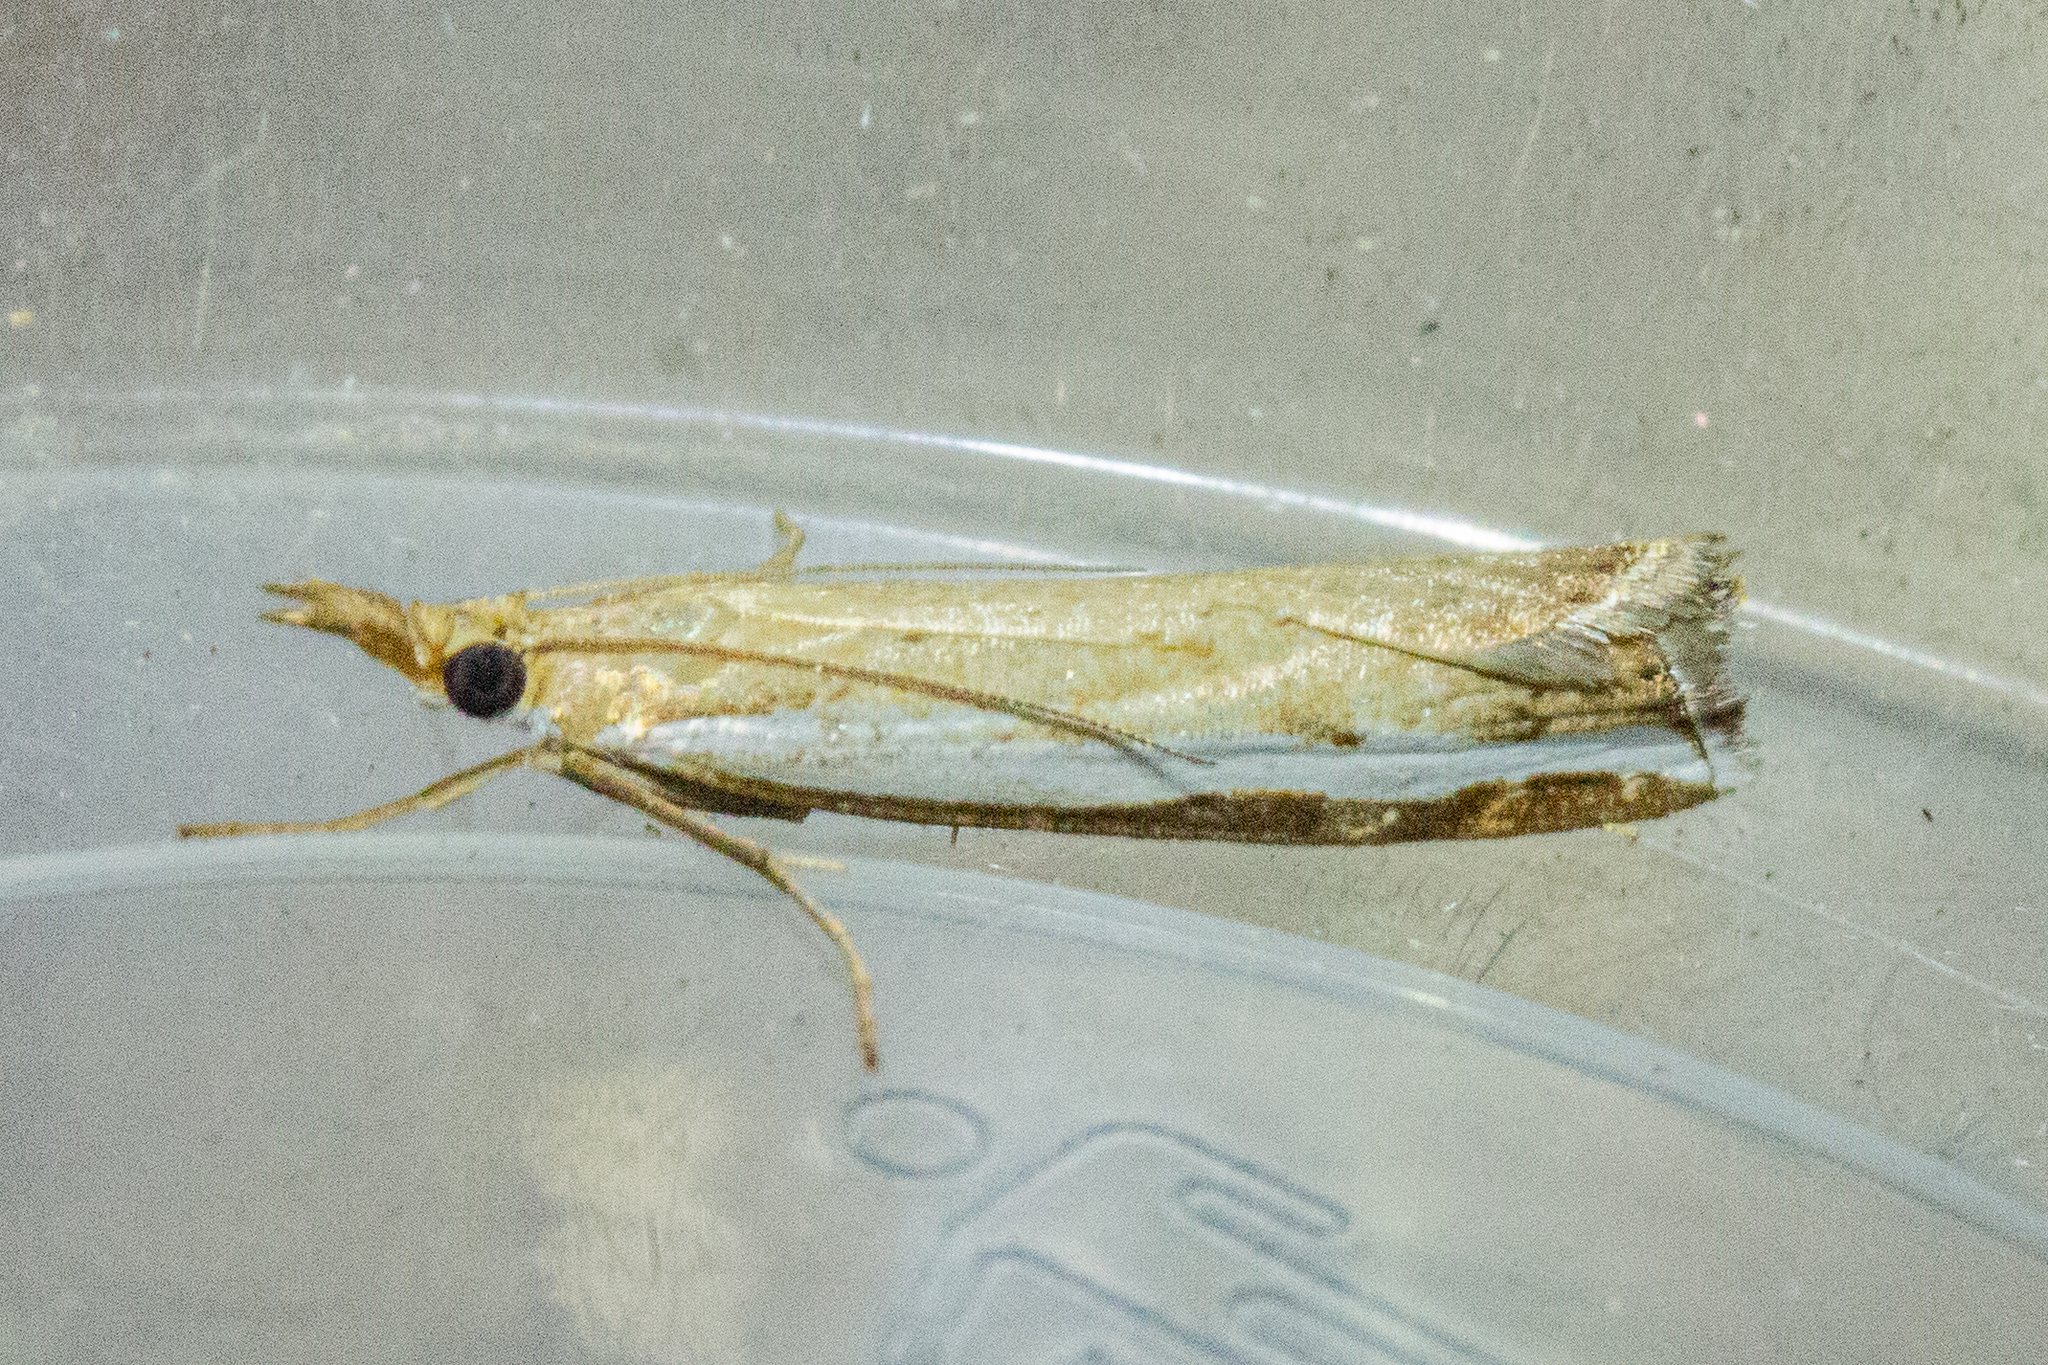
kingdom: Animalia
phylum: Arthropoda
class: Insecta
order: Lepidoptera
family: Crambidae
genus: Orocrambus
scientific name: Orocrambus flexuosellus
